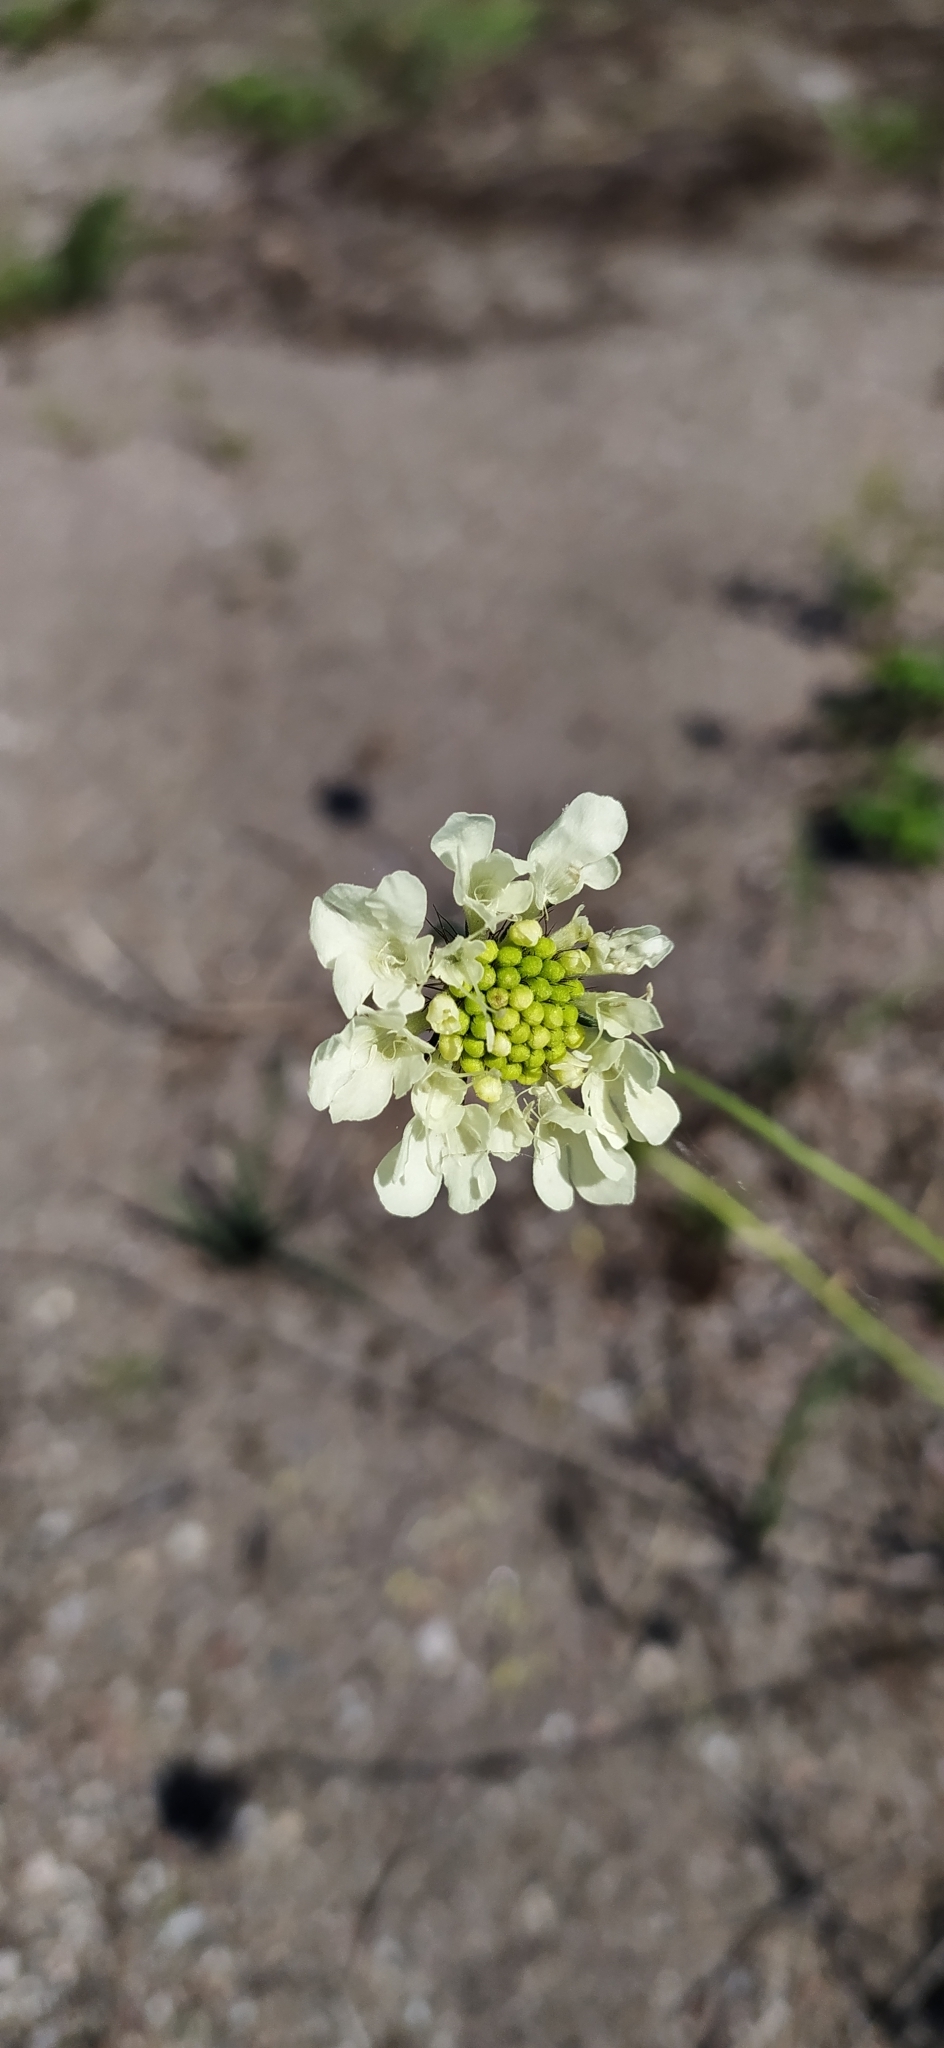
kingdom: Plantae
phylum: Tracheophyta
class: Magnoliopsida
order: Dipsacales
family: Caprifoliaceae
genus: Scabiosa
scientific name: Scabiosa ochroleuca
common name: Cream pincushions
